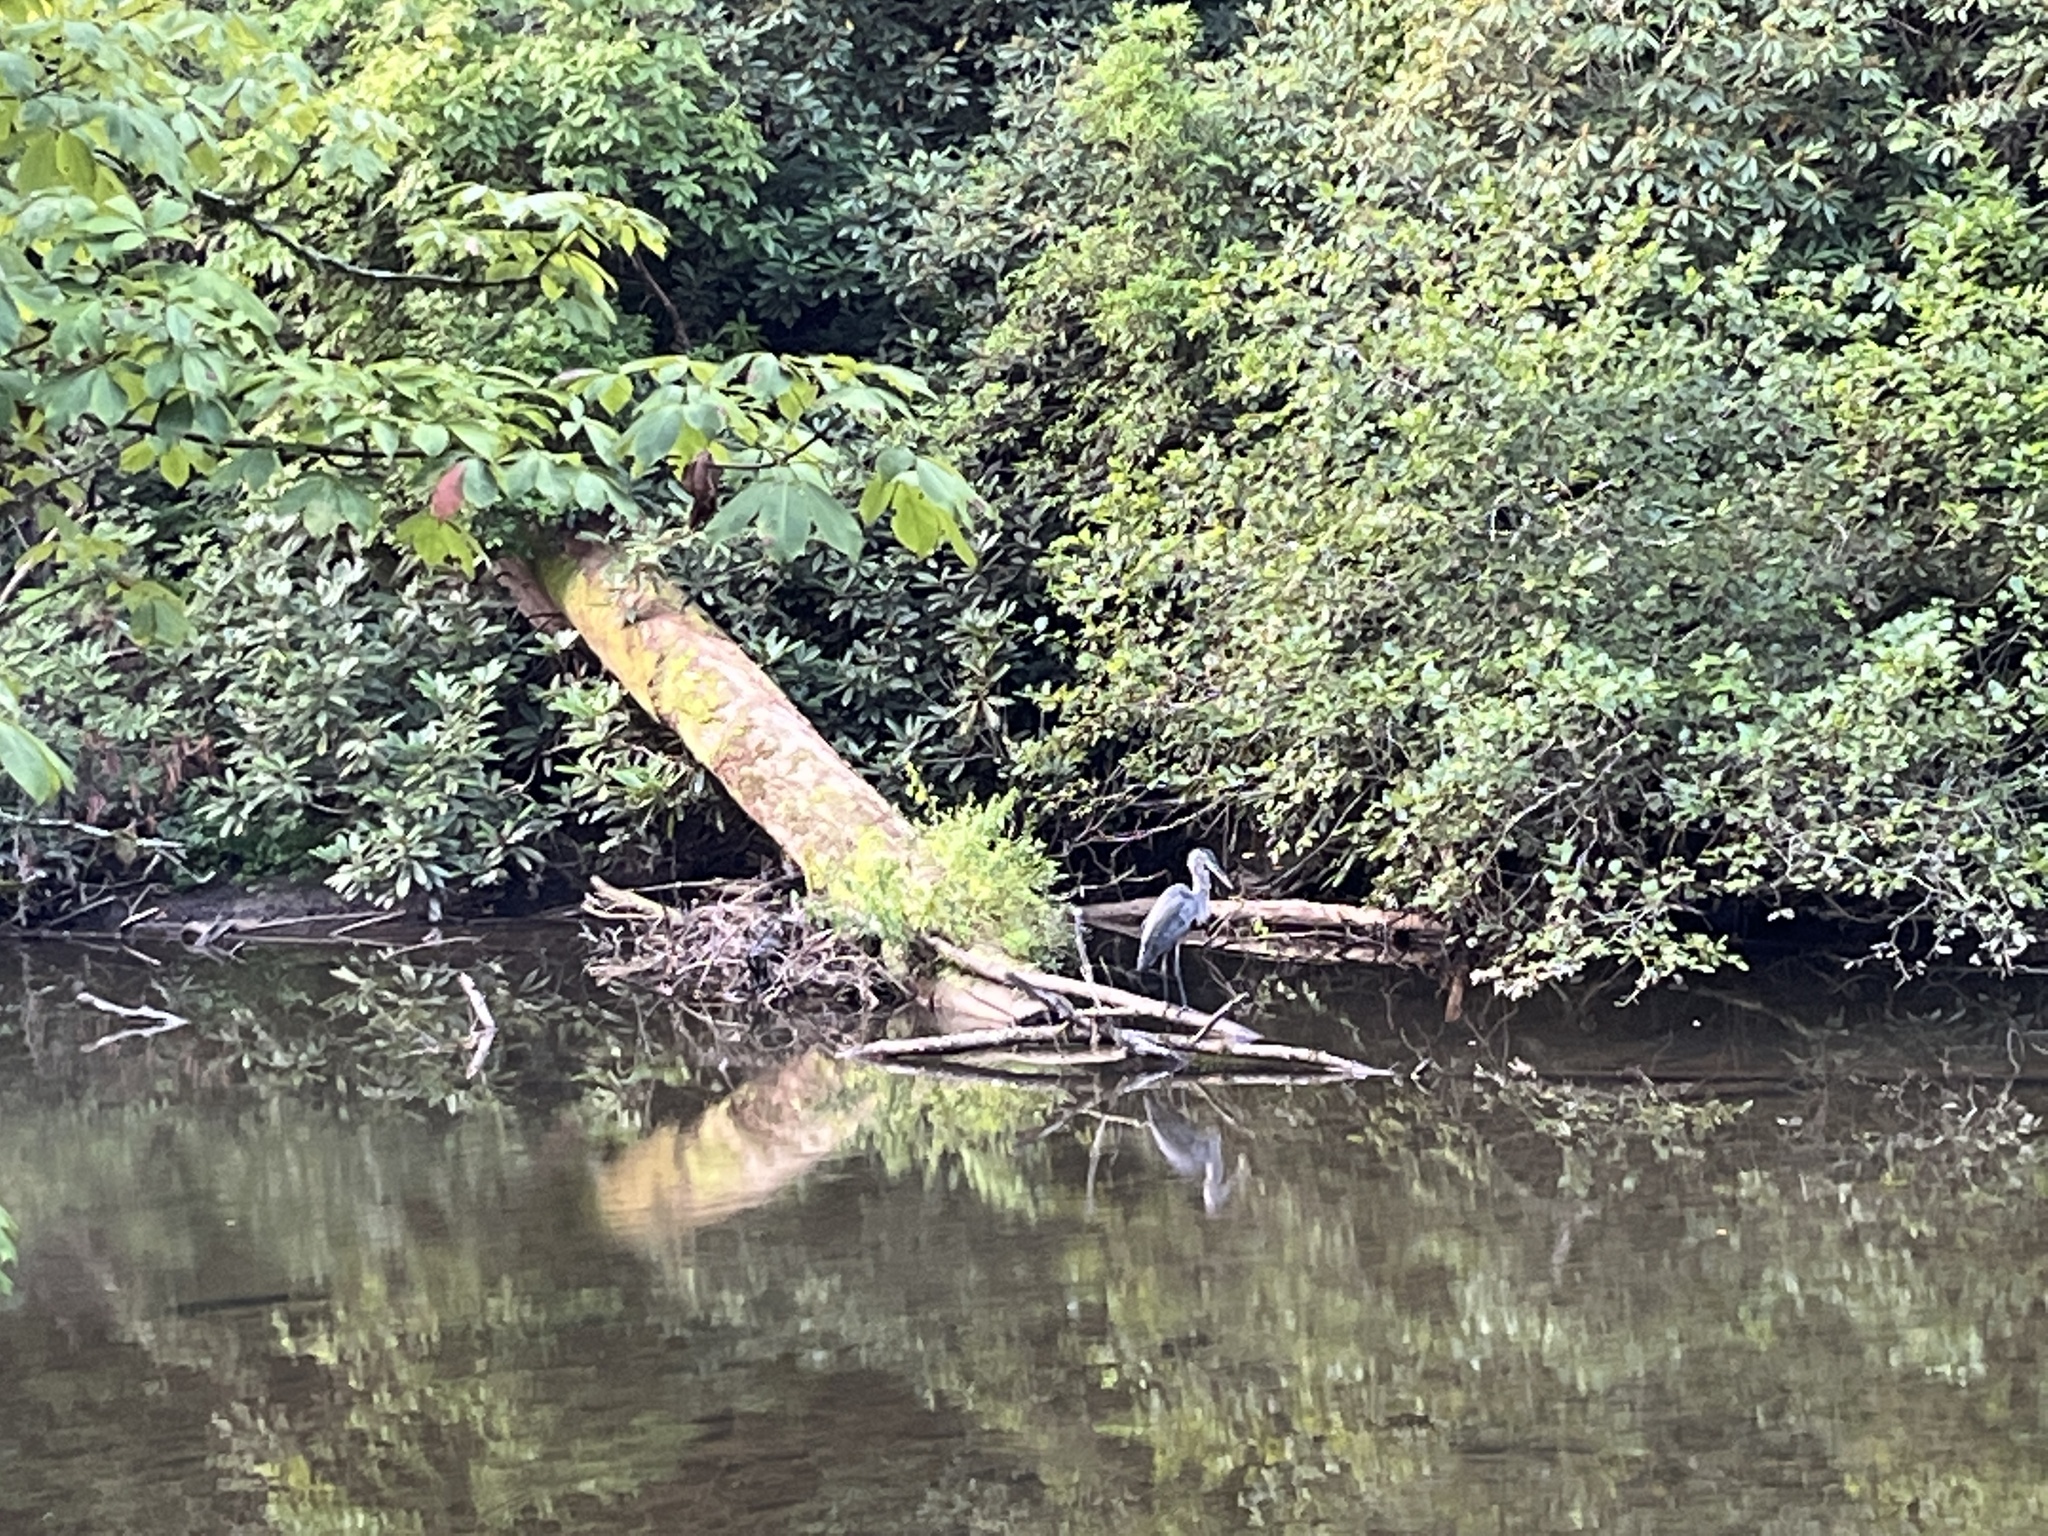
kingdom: Animalia
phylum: Chordata
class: Aves
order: Pelecaniformes
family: Ardeidae
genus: Ardea
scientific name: Ardea herodias
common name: Great blue heron
